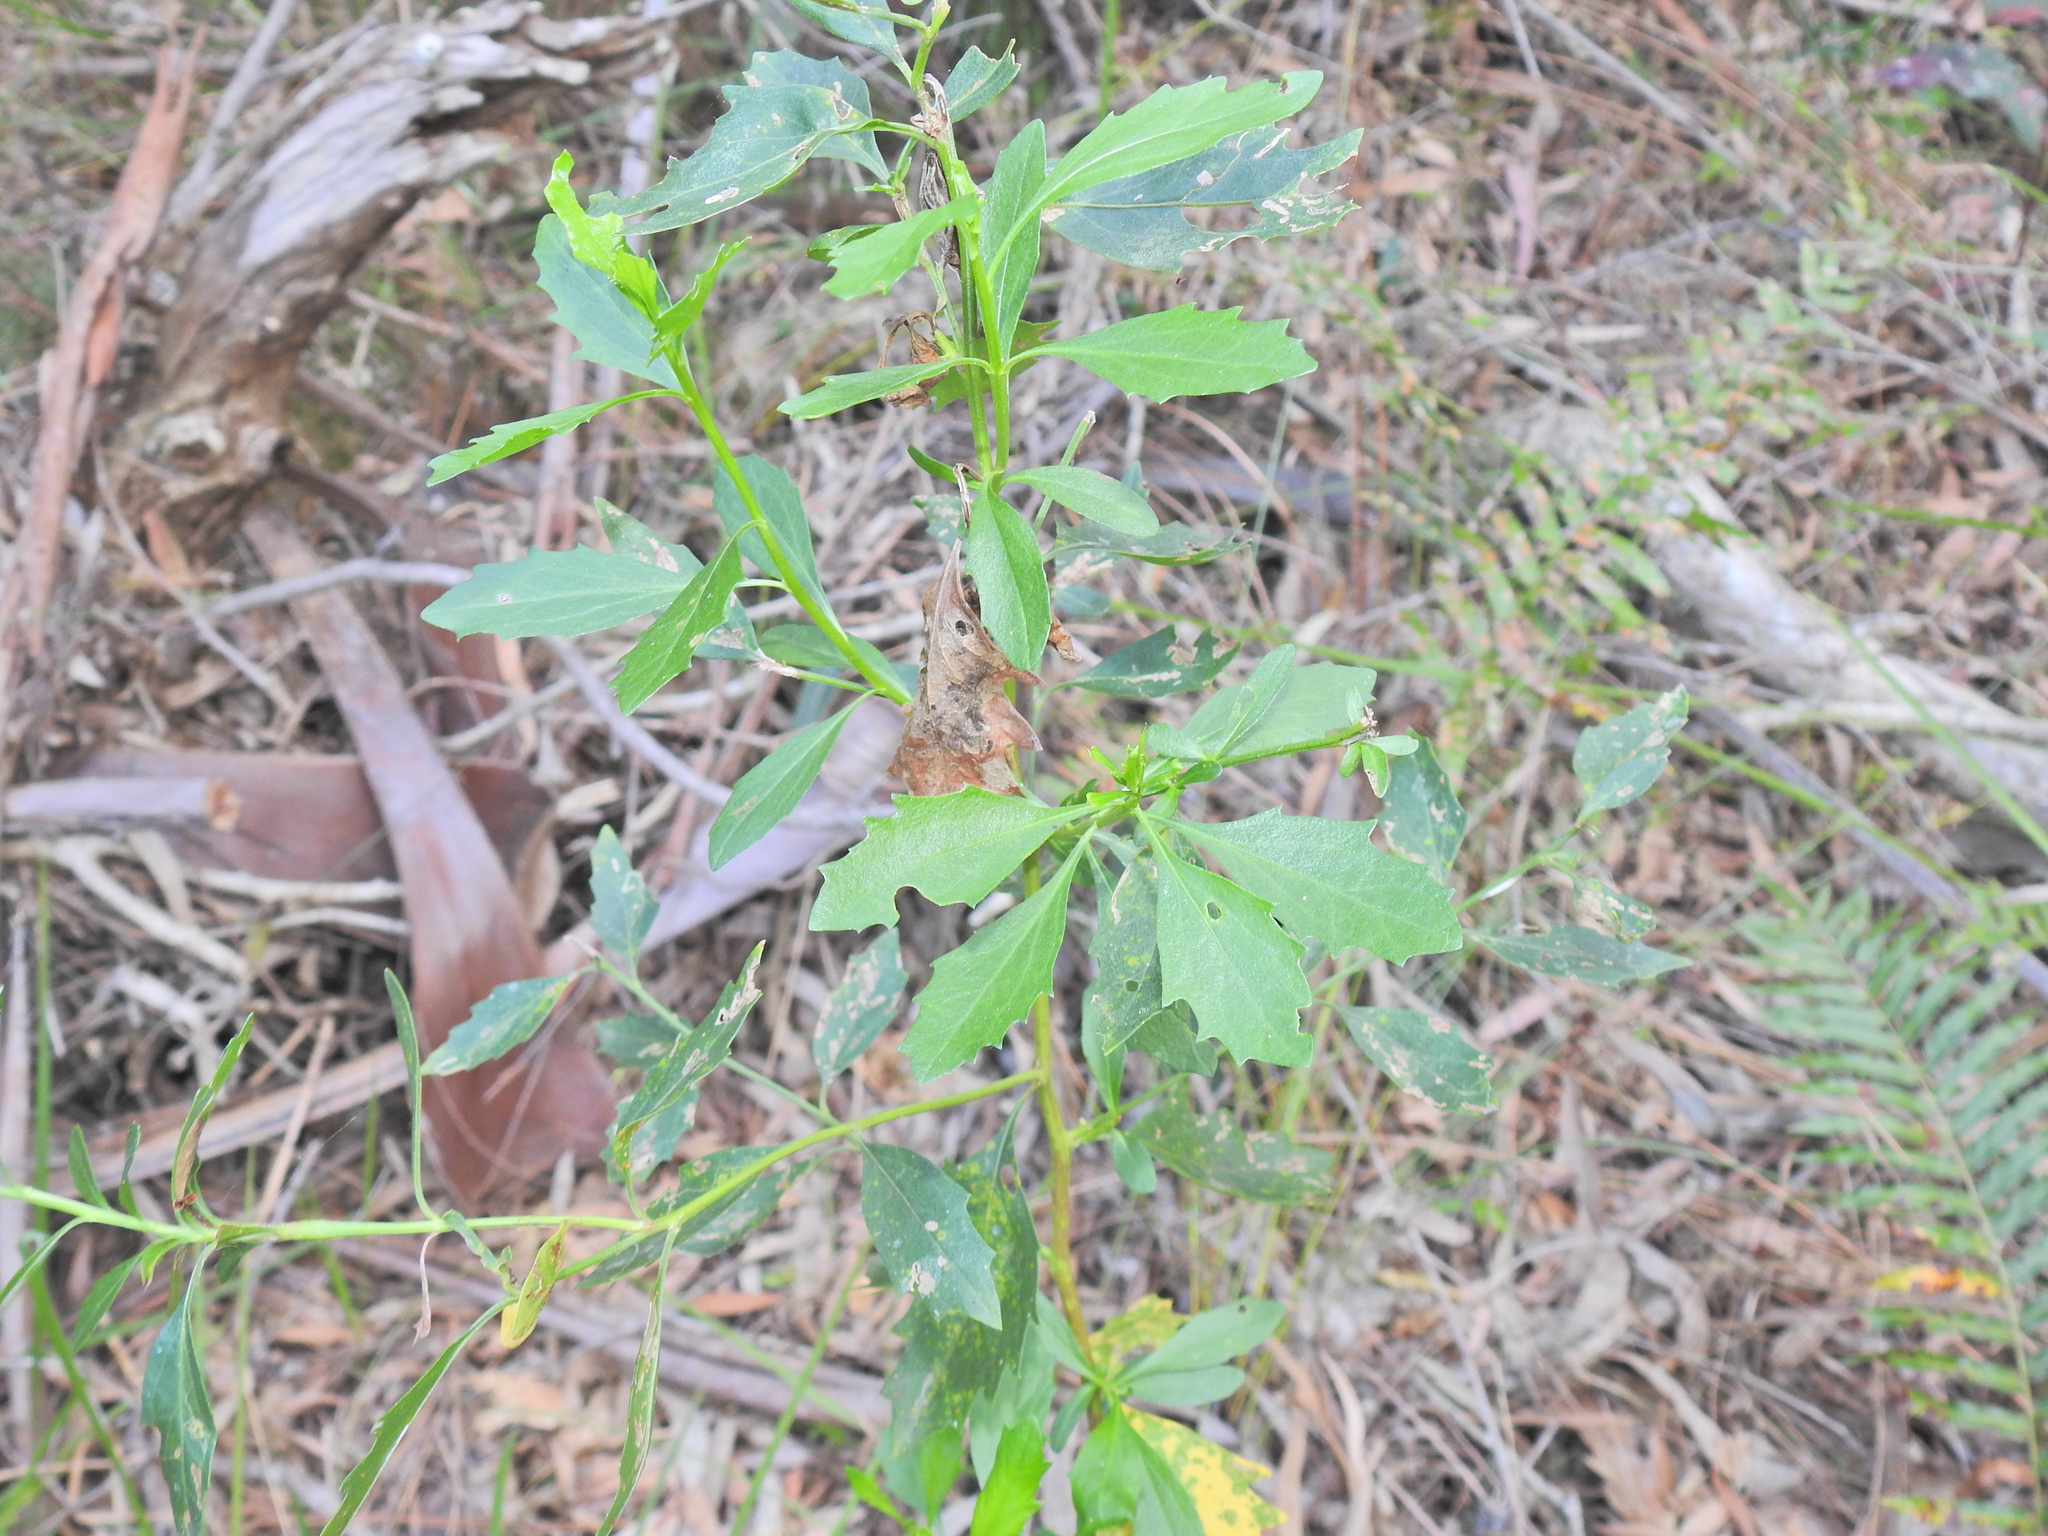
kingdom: Plantae
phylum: Tracheophyta
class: Magnoliopsida
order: Asterales
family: Asteraceae
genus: Baccharis
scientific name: Baccharis halimifolia
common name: Eastern baccharis
